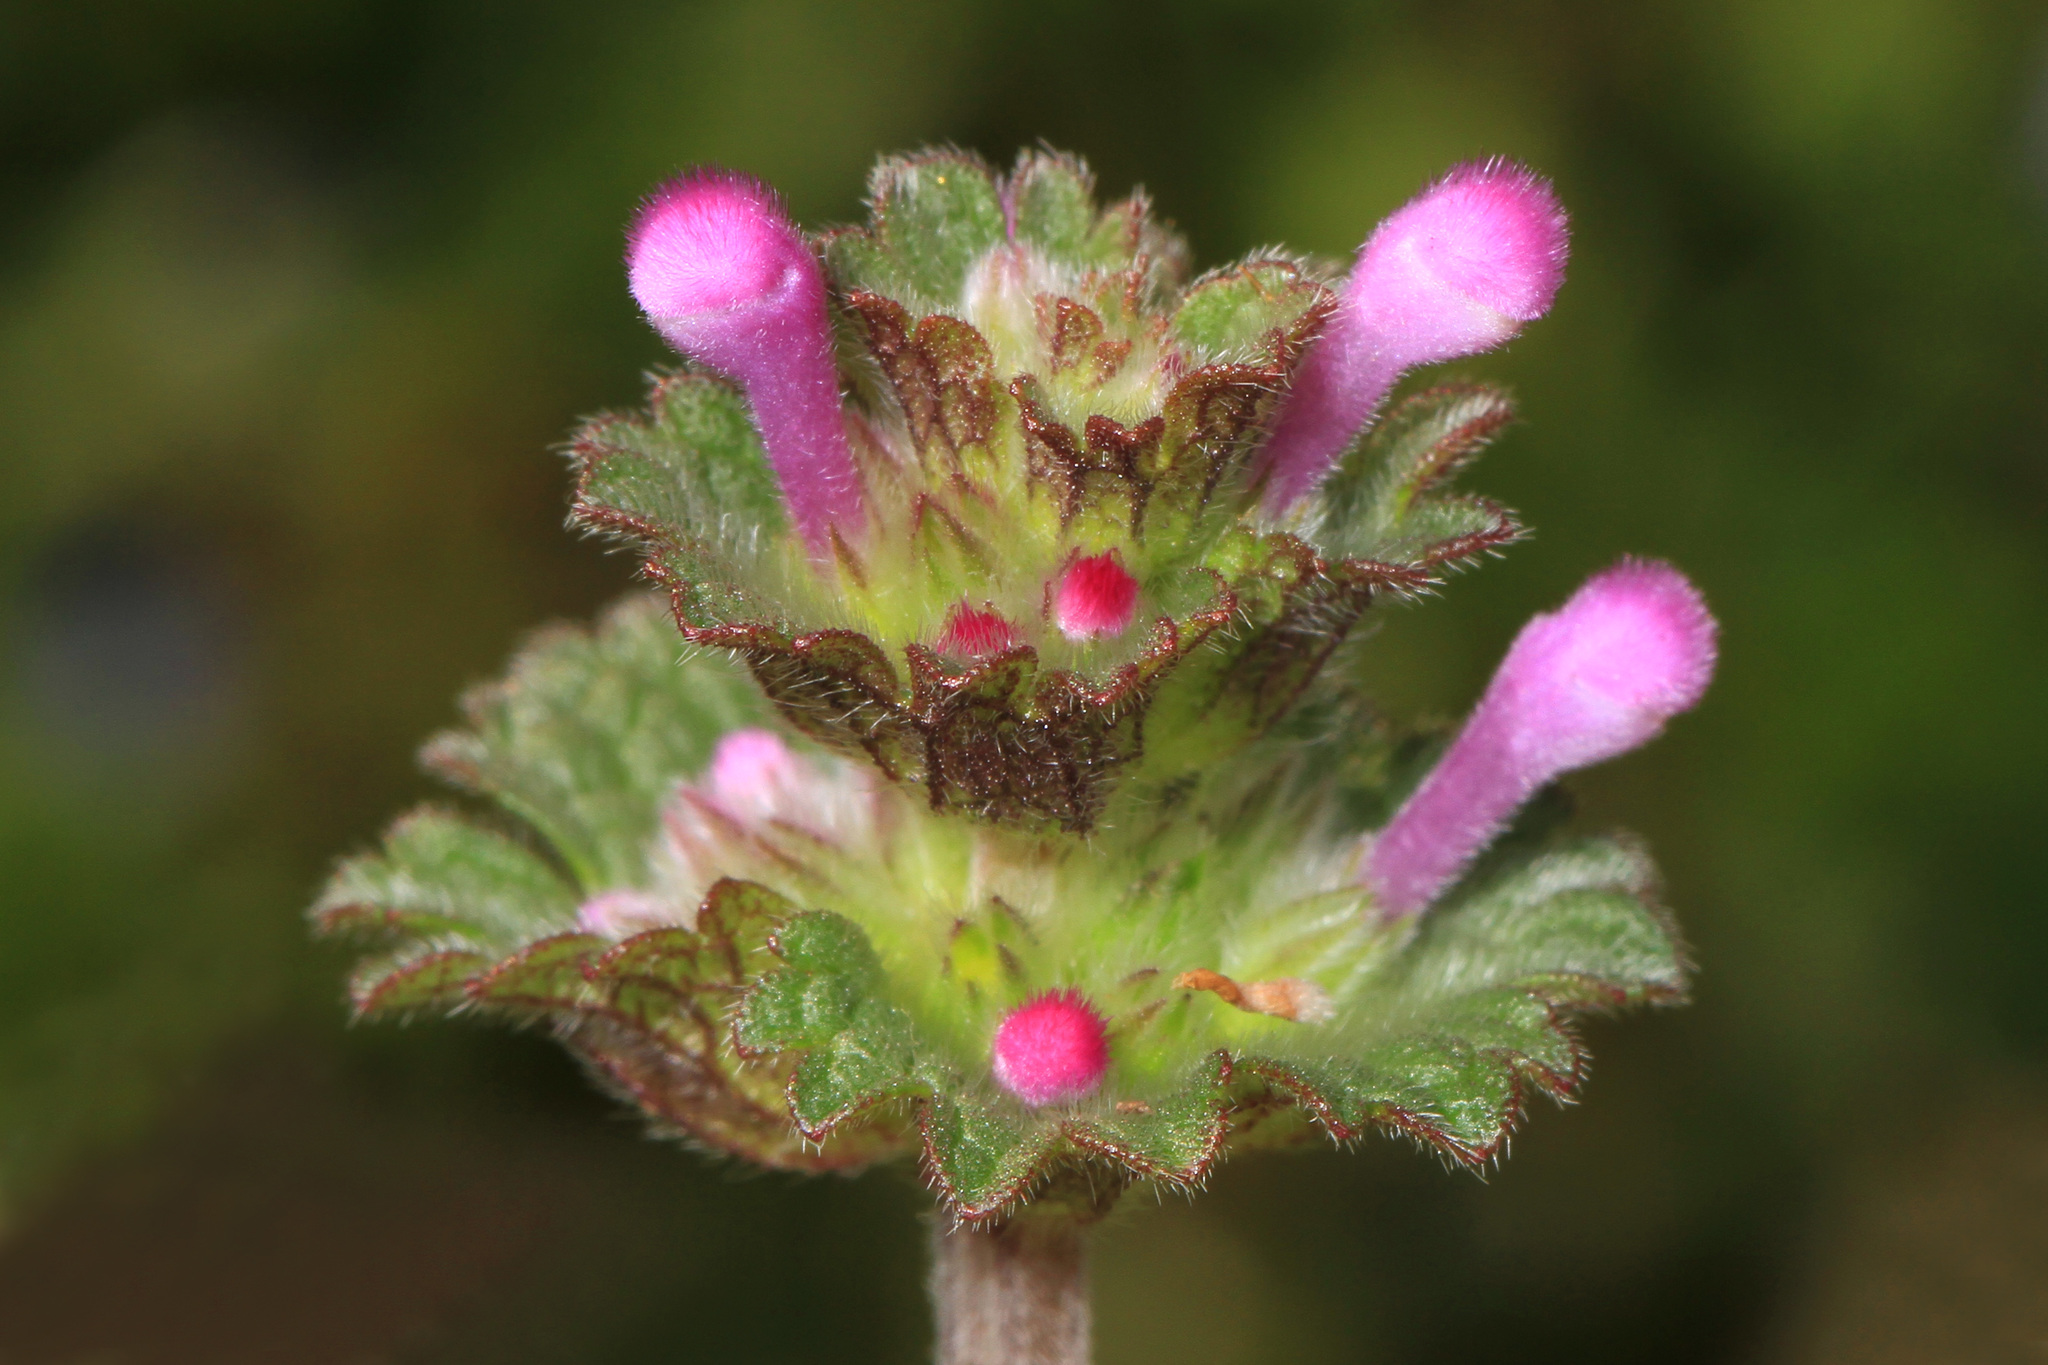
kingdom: Plantae
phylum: Tracheophyta
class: Magnoliopsida
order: Lamiales
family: Lamiaceae
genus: Lamium
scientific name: Lamium amplexicaule
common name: Henbit dead-nettle
